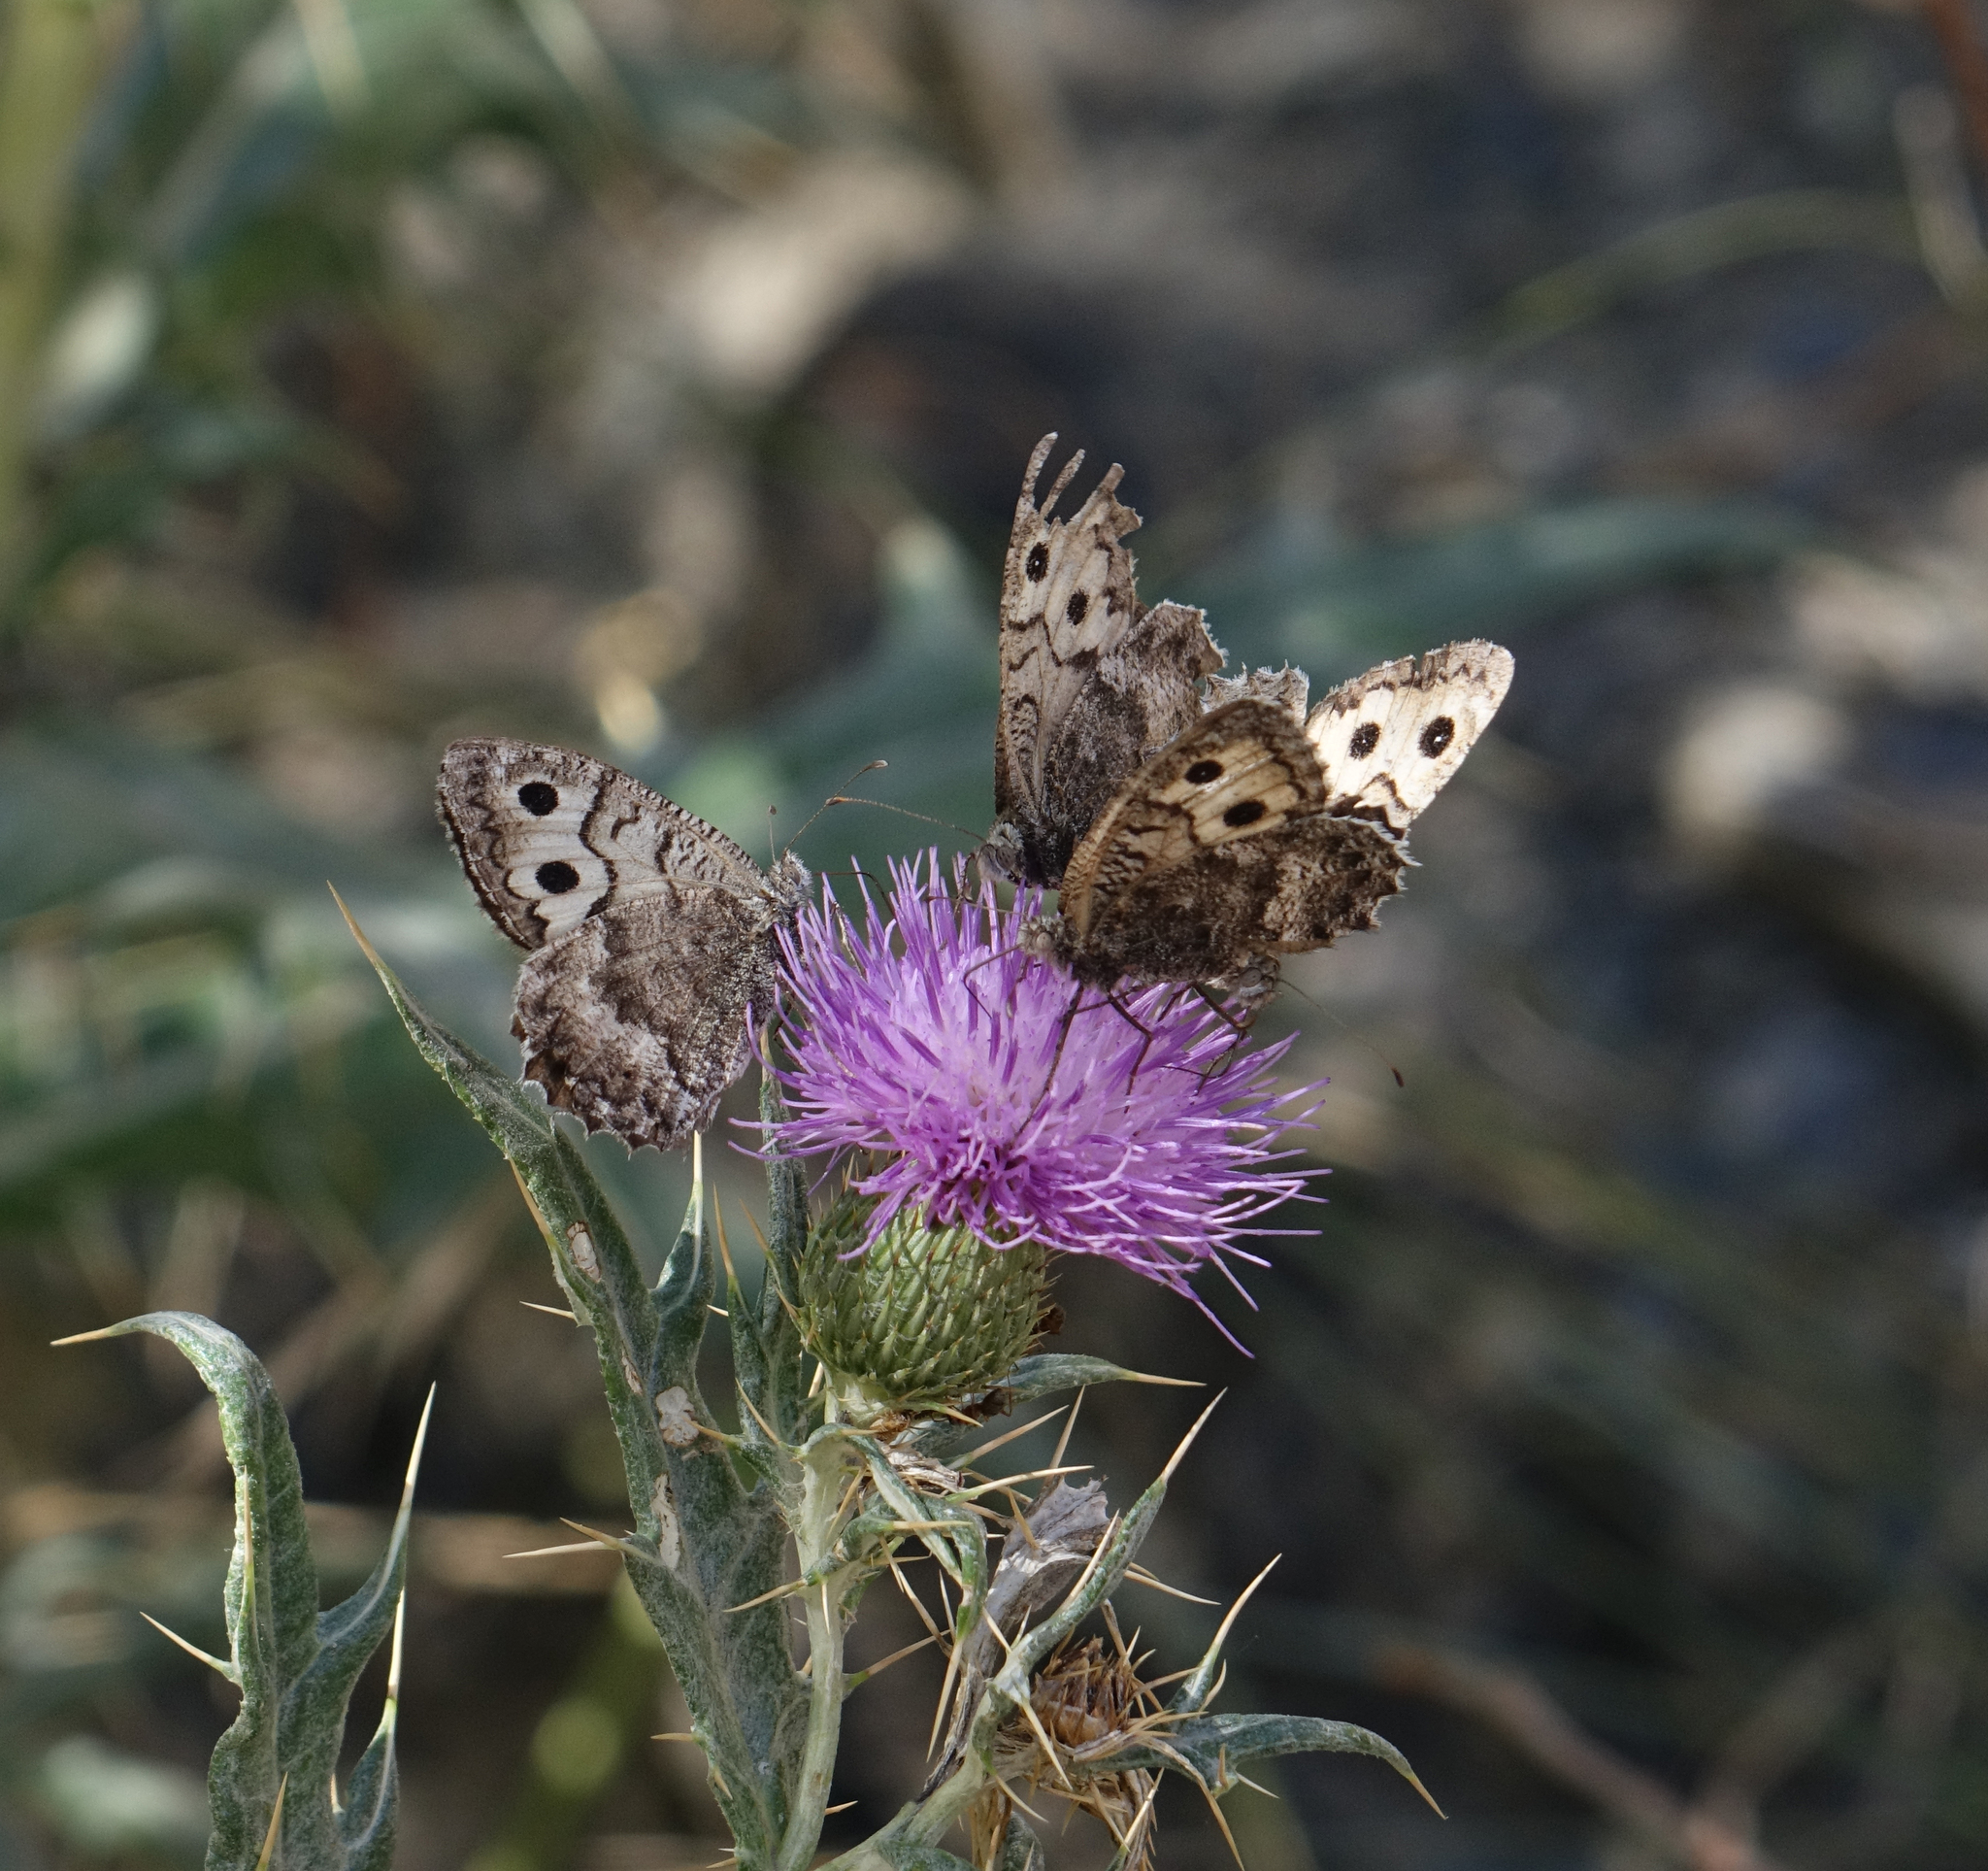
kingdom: Animalia
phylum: Arthropoda
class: Insecta
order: Lepidoptera
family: Nymphalidae
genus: Pseudochazara
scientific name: Pseudochazara daghestana
